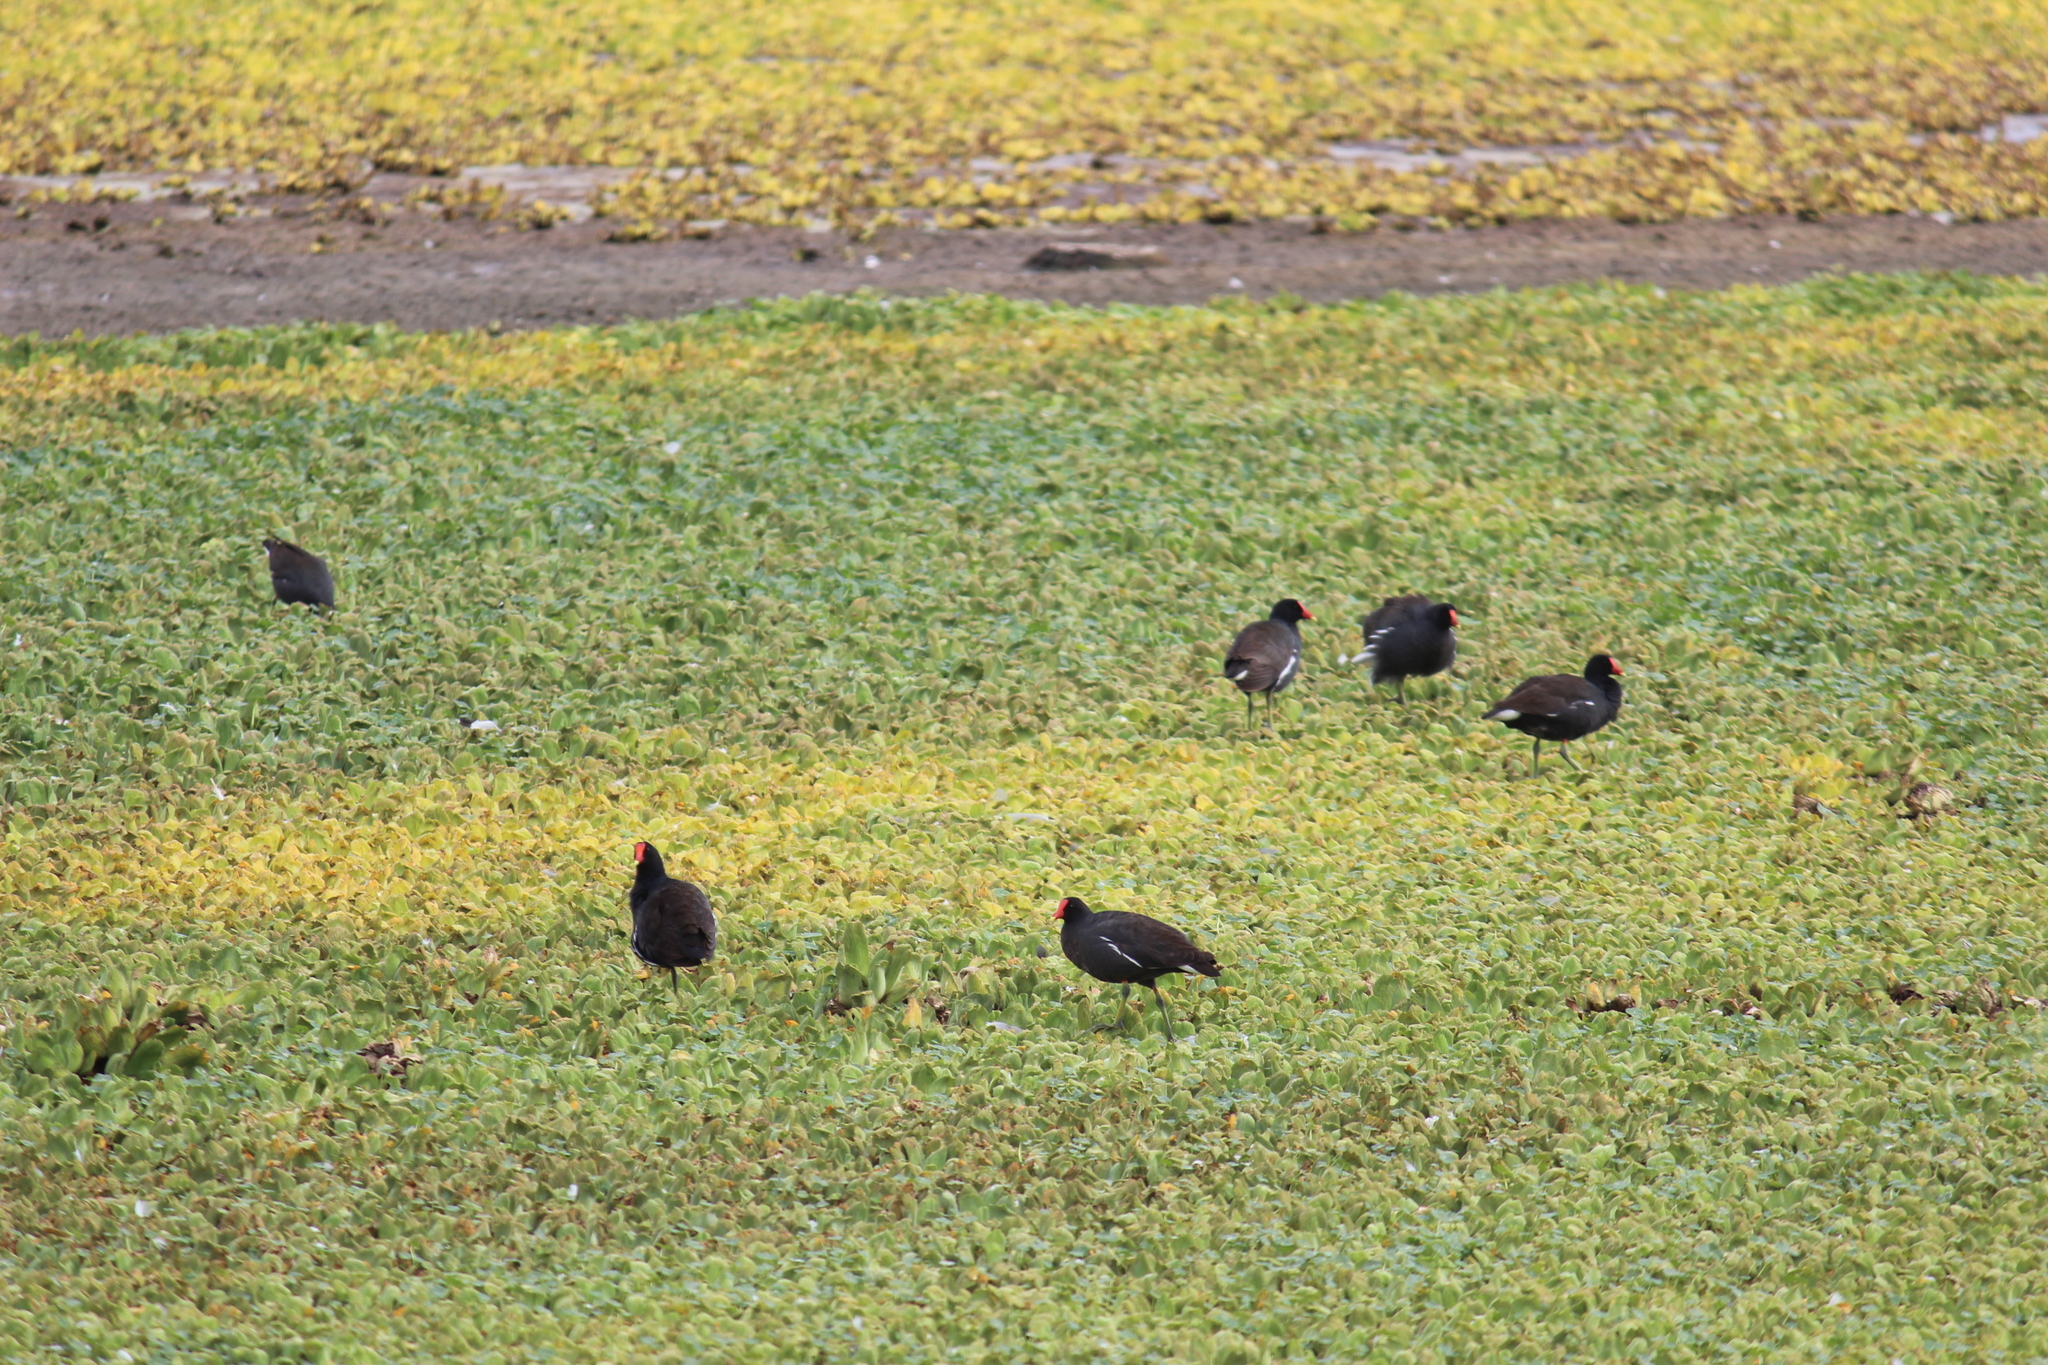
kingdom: Animalia
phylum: Chordata
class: Aves
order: Gruiformes
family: Rallidae
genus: Gallinula
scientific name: Gallinula chloropus
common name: Common moorhen
